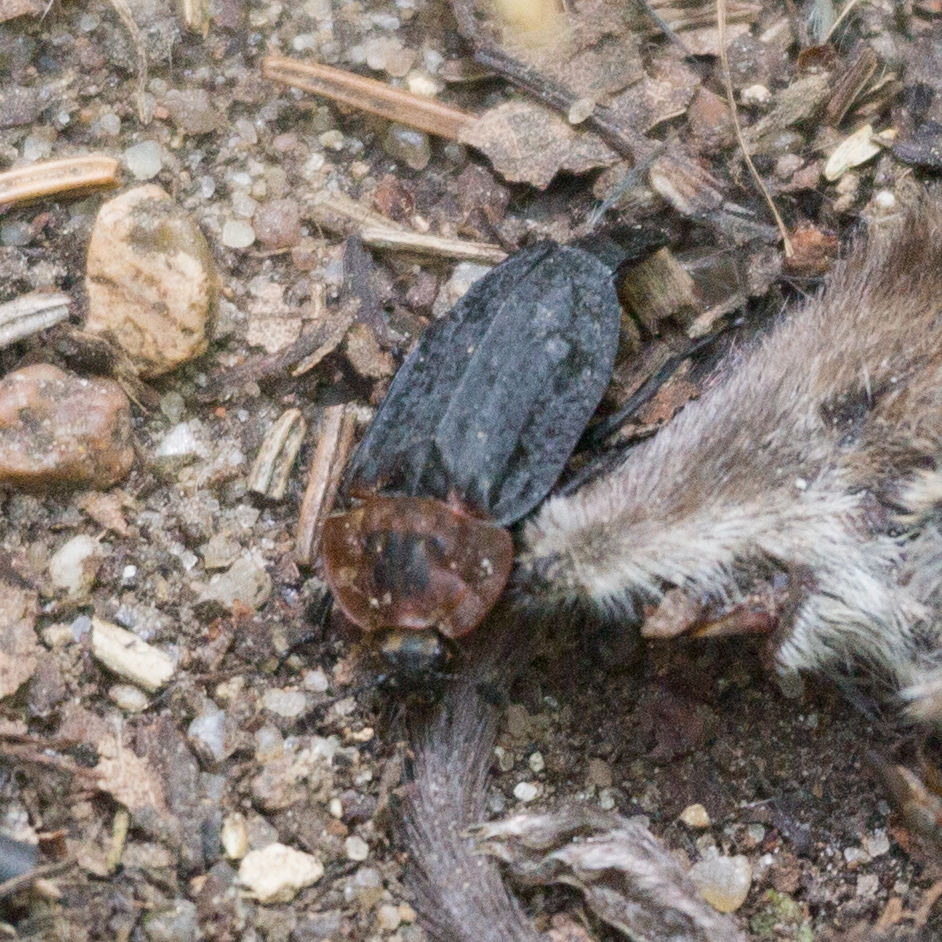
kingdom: Animalia
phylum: Arthropoda
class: Insecta
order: Coleoptera
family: Staphylinidae
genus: Oiceoptoma
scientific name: Oiceoptoma thoracicum
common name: Red-breasted carrion beetle
